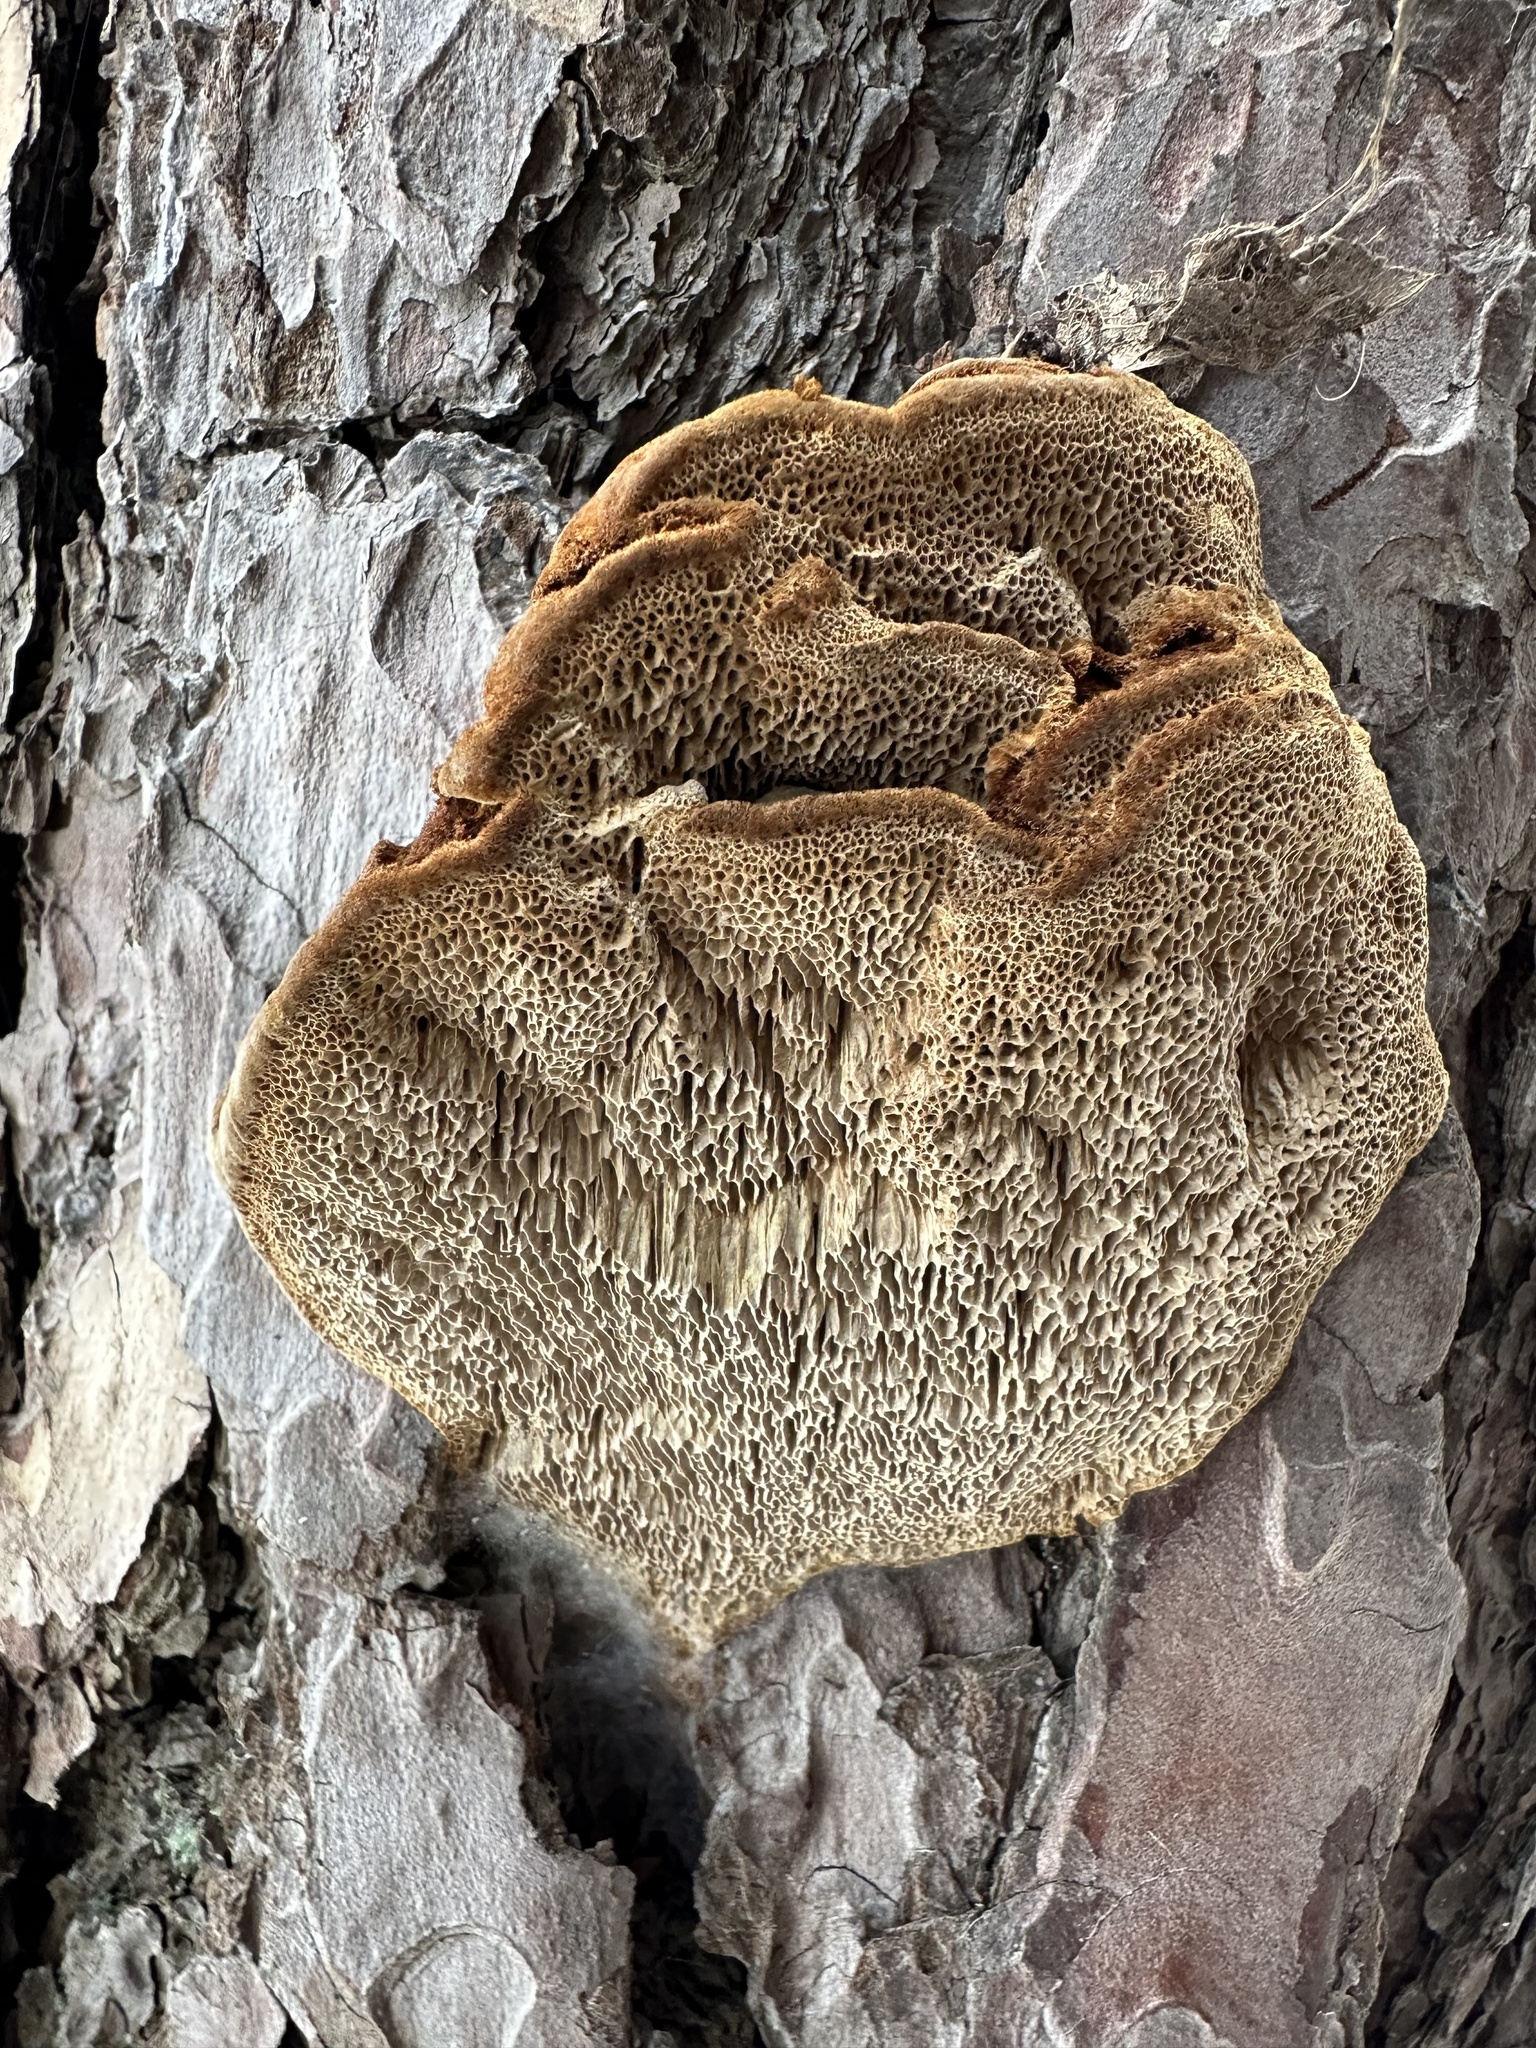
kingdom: Fungi
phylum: Basidiomycota
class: Agaricomycetes
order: Hymenochaetales
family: Hymenochaetaceae
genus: Porodaedalea
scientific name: Porodaedalea pini
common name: Pine bracket
